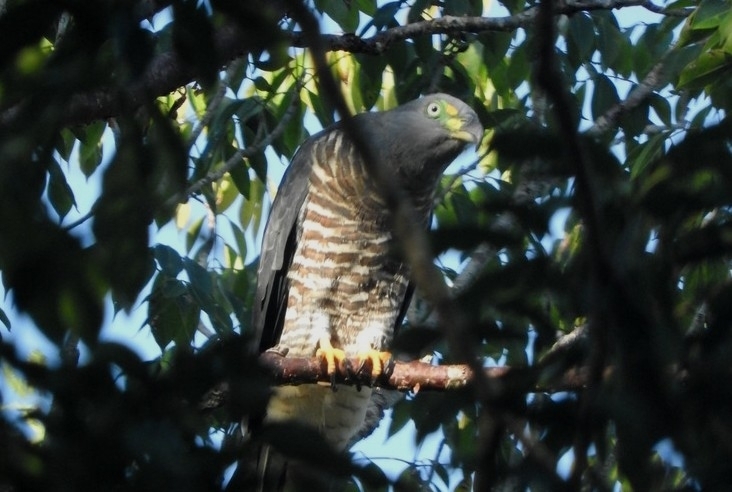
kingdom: Animalia
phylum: Chordata
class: Aves
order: Accipitriformes
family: Accipitridae
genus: Chondrohierax
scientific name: Chondrohierax uncinatus
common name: Hook-billed kite
